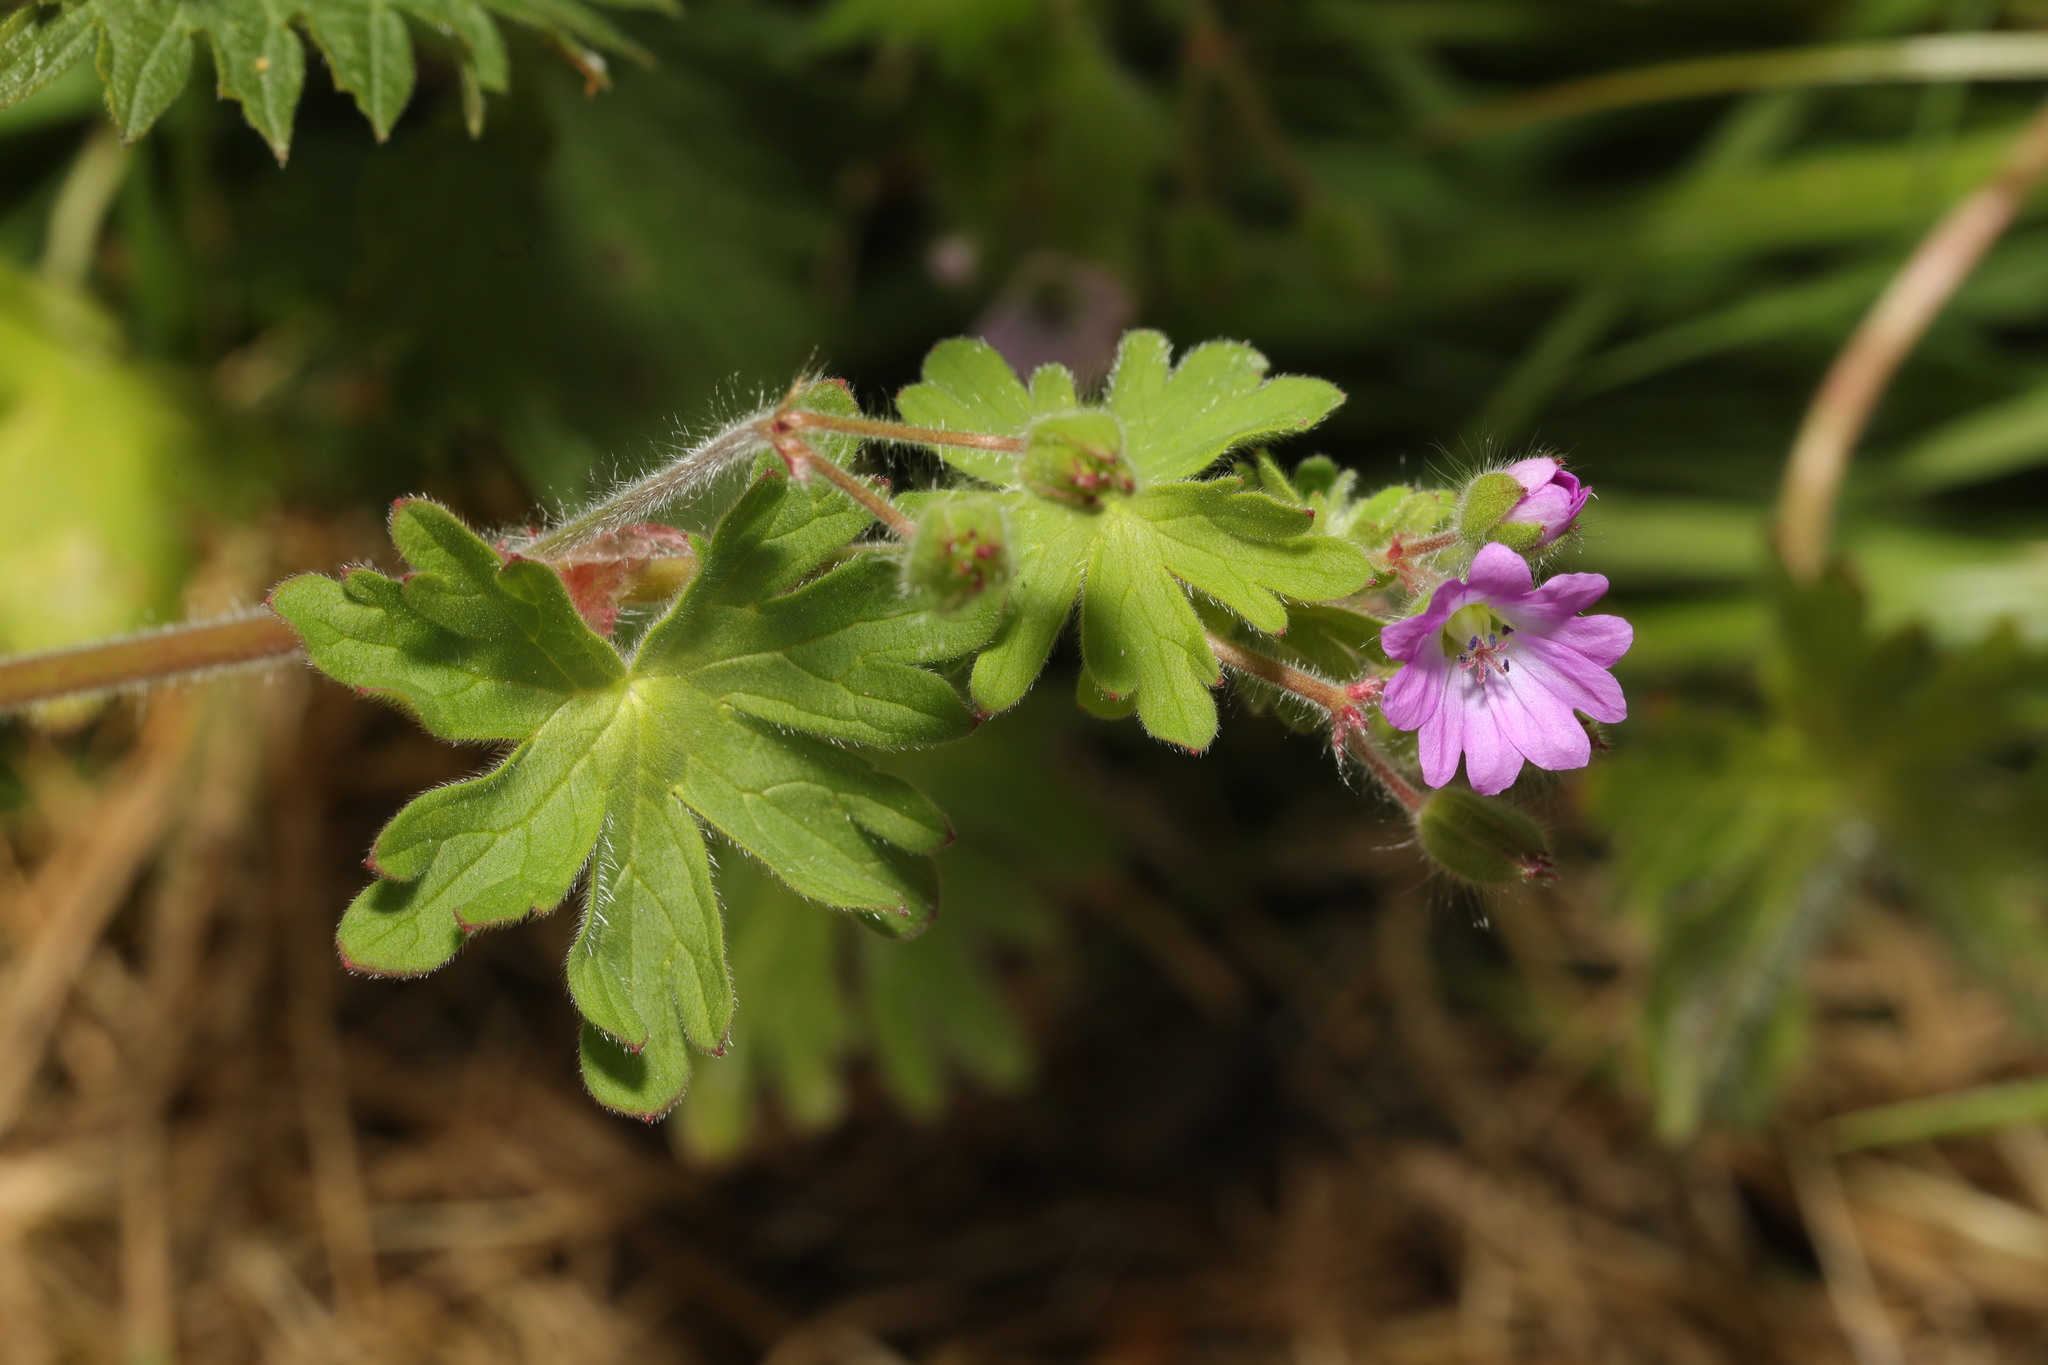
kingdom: Plantae
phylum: Tracheophyta
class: Magnoliopsida
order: Geraniales
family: Geraniaceae
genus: Geranium
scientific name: Geranium molle
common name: Dove's-foot crane's-bill
